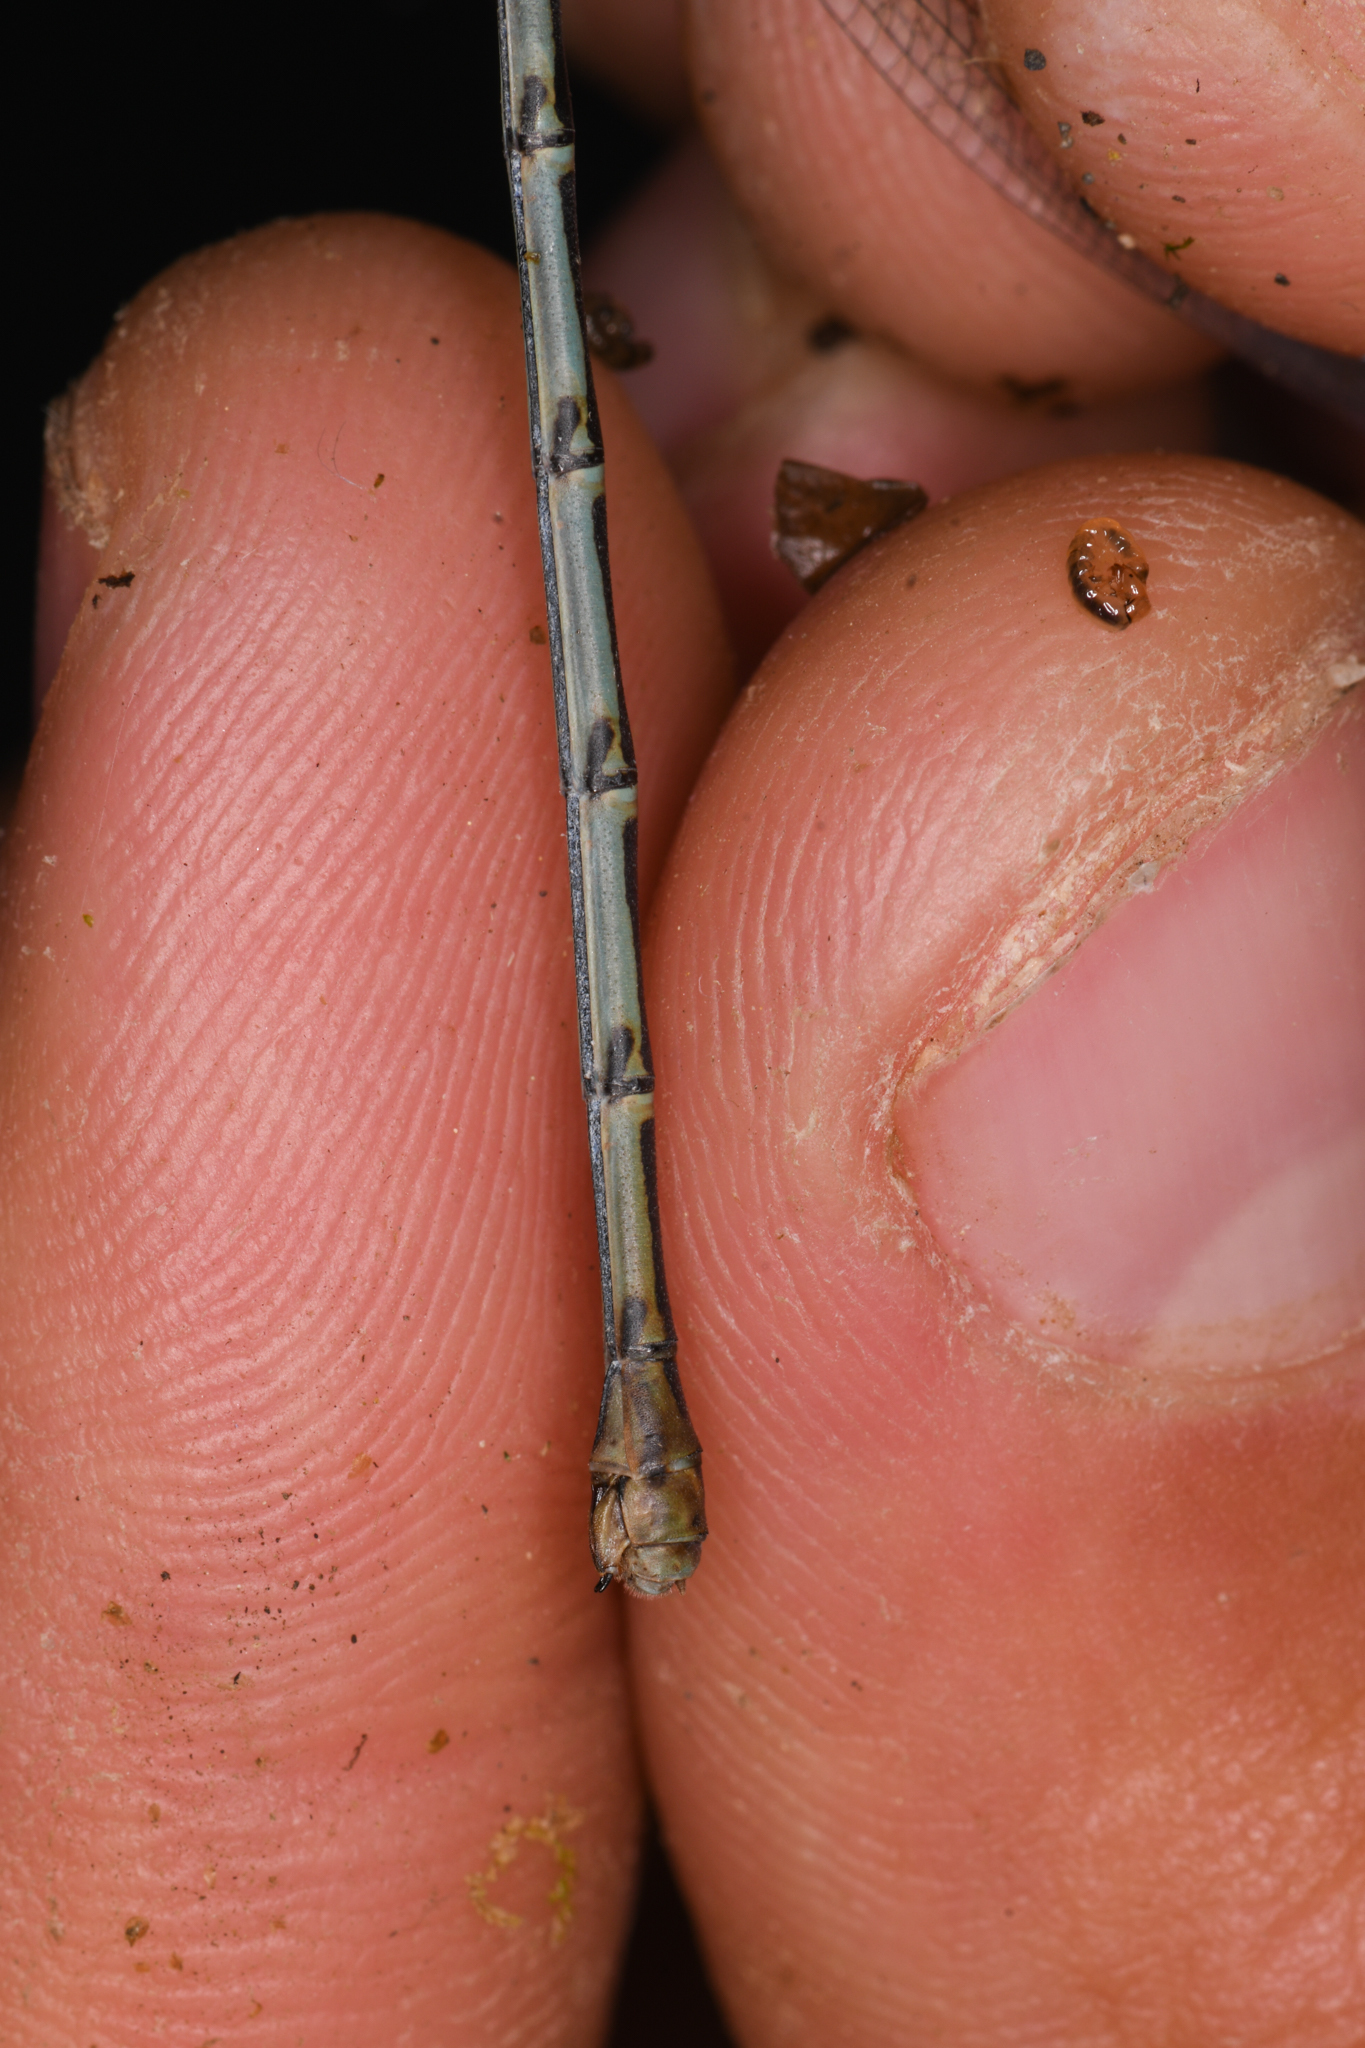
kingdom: Animalia
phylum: Arthropoda
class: Insecta
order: Odonata
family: Coenagrionidae
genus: Argia
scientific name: Argia lugens
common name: Sooty dancer
